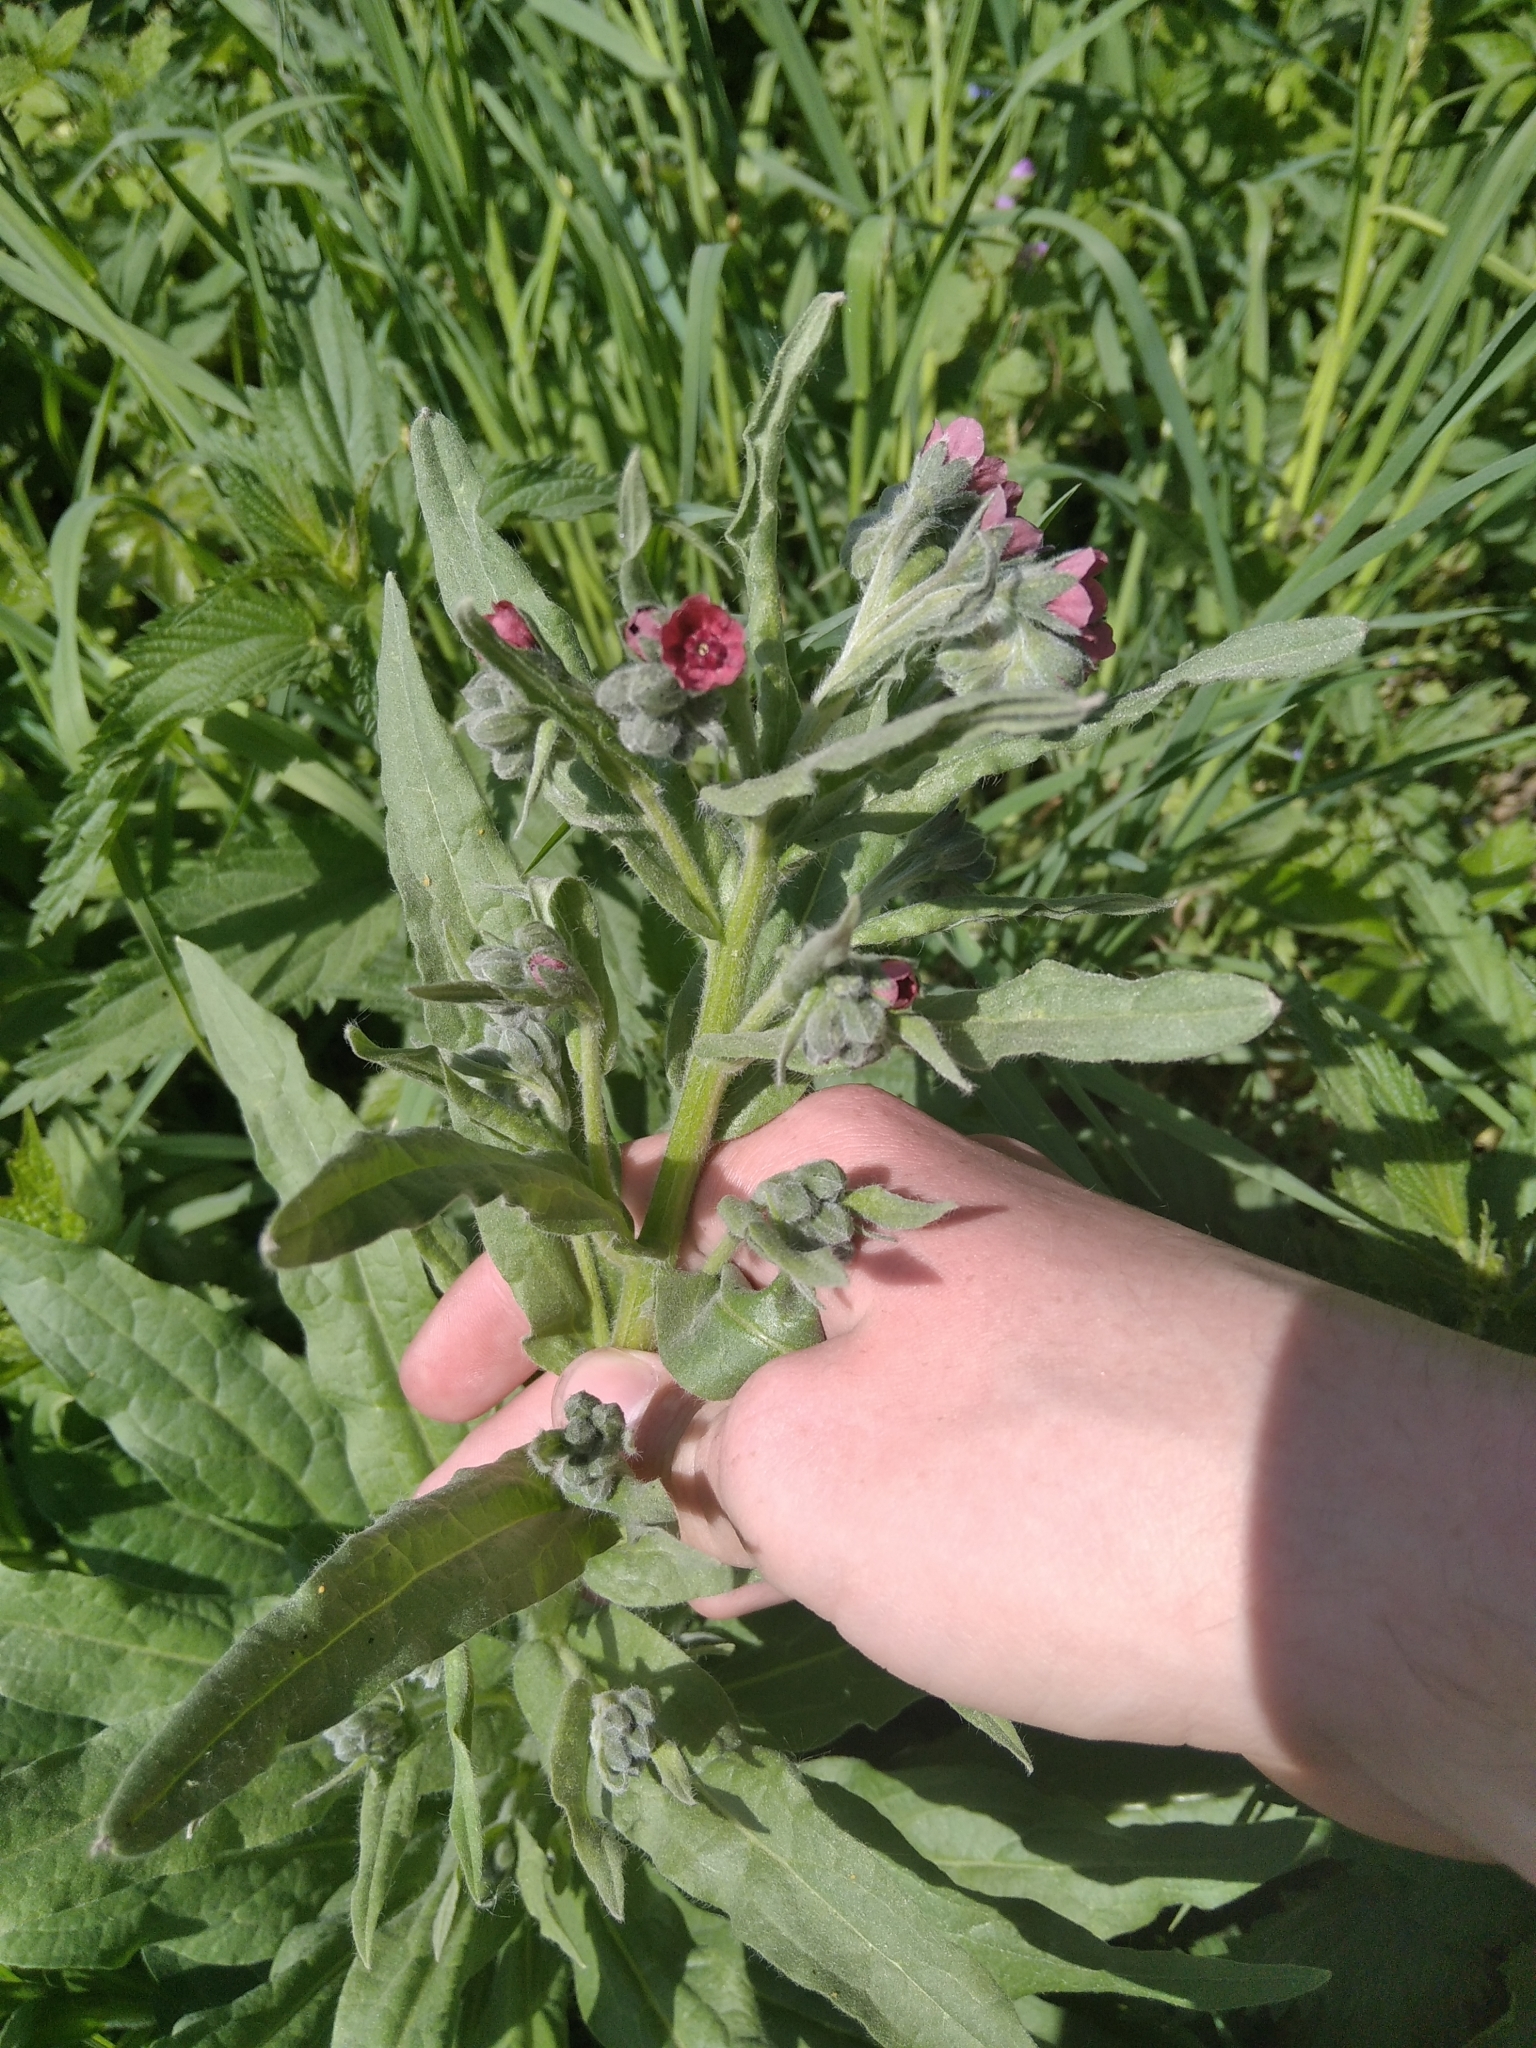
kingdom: Plantae
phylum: Tracheophyta
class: Magnoliopsida
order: Boraginales
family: Boraginaceae
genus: Cynoglossum
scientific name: Cynoglossum officinale
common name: Hound's-tongue
